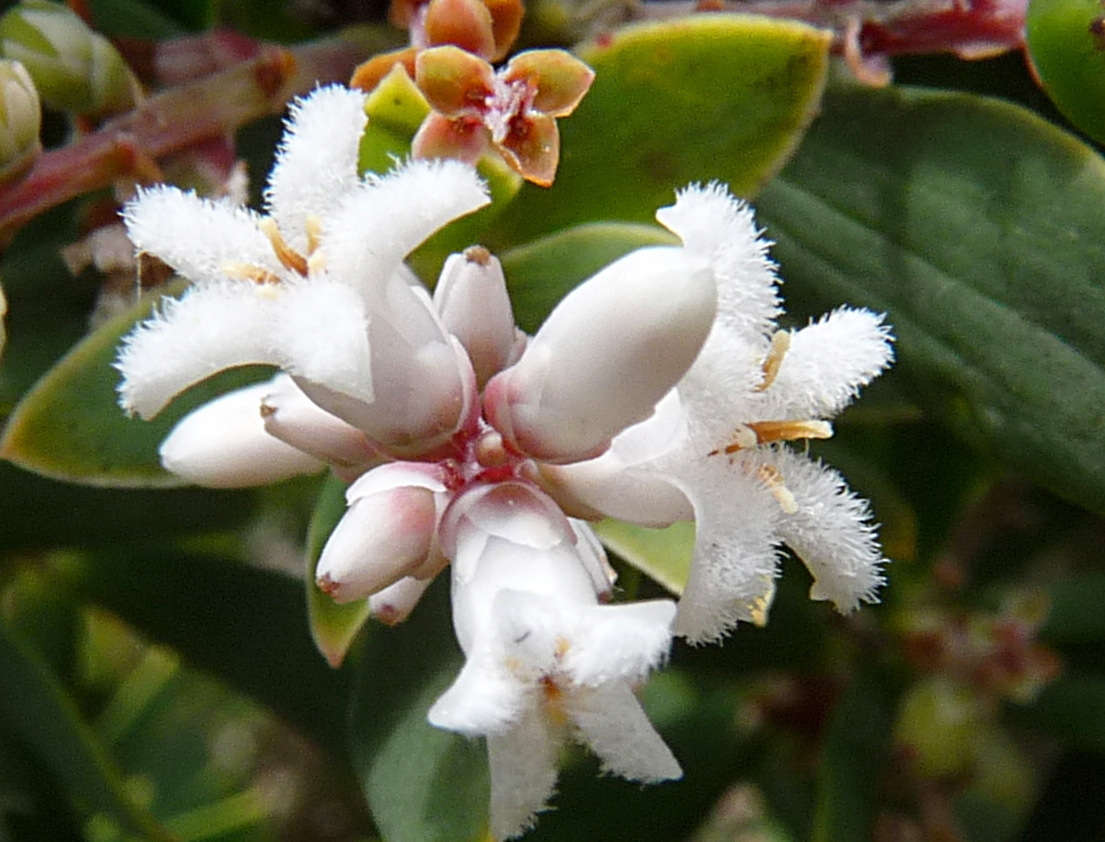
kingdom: Plantae
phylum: Tracheophyta
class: Magnoliopsida
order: Ericales
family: Ericaceae
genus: Leptecophylla
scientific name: Leptecophylla parvifolia
